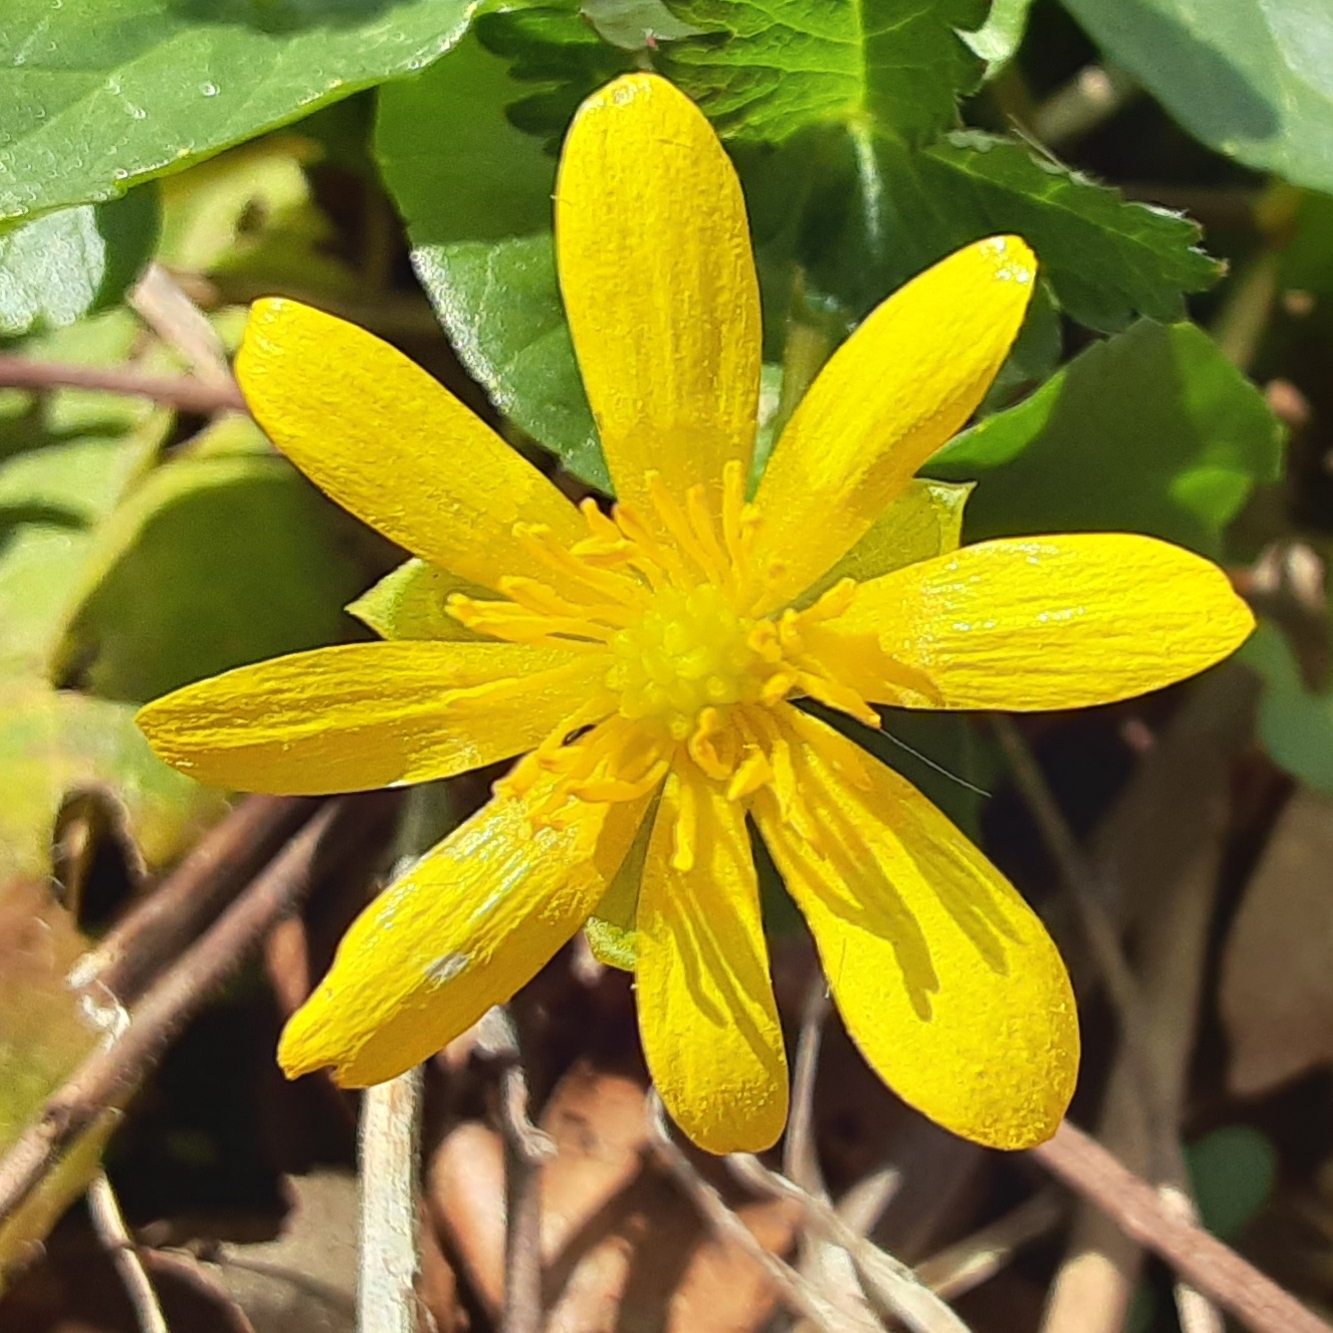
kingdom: Plantae
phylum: Tracheophyta
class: Magnoliopsida
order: Ranunculales
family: Ranunculaceae
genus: Ficaria
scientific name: Ficaria verna
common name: Lesser celandine
